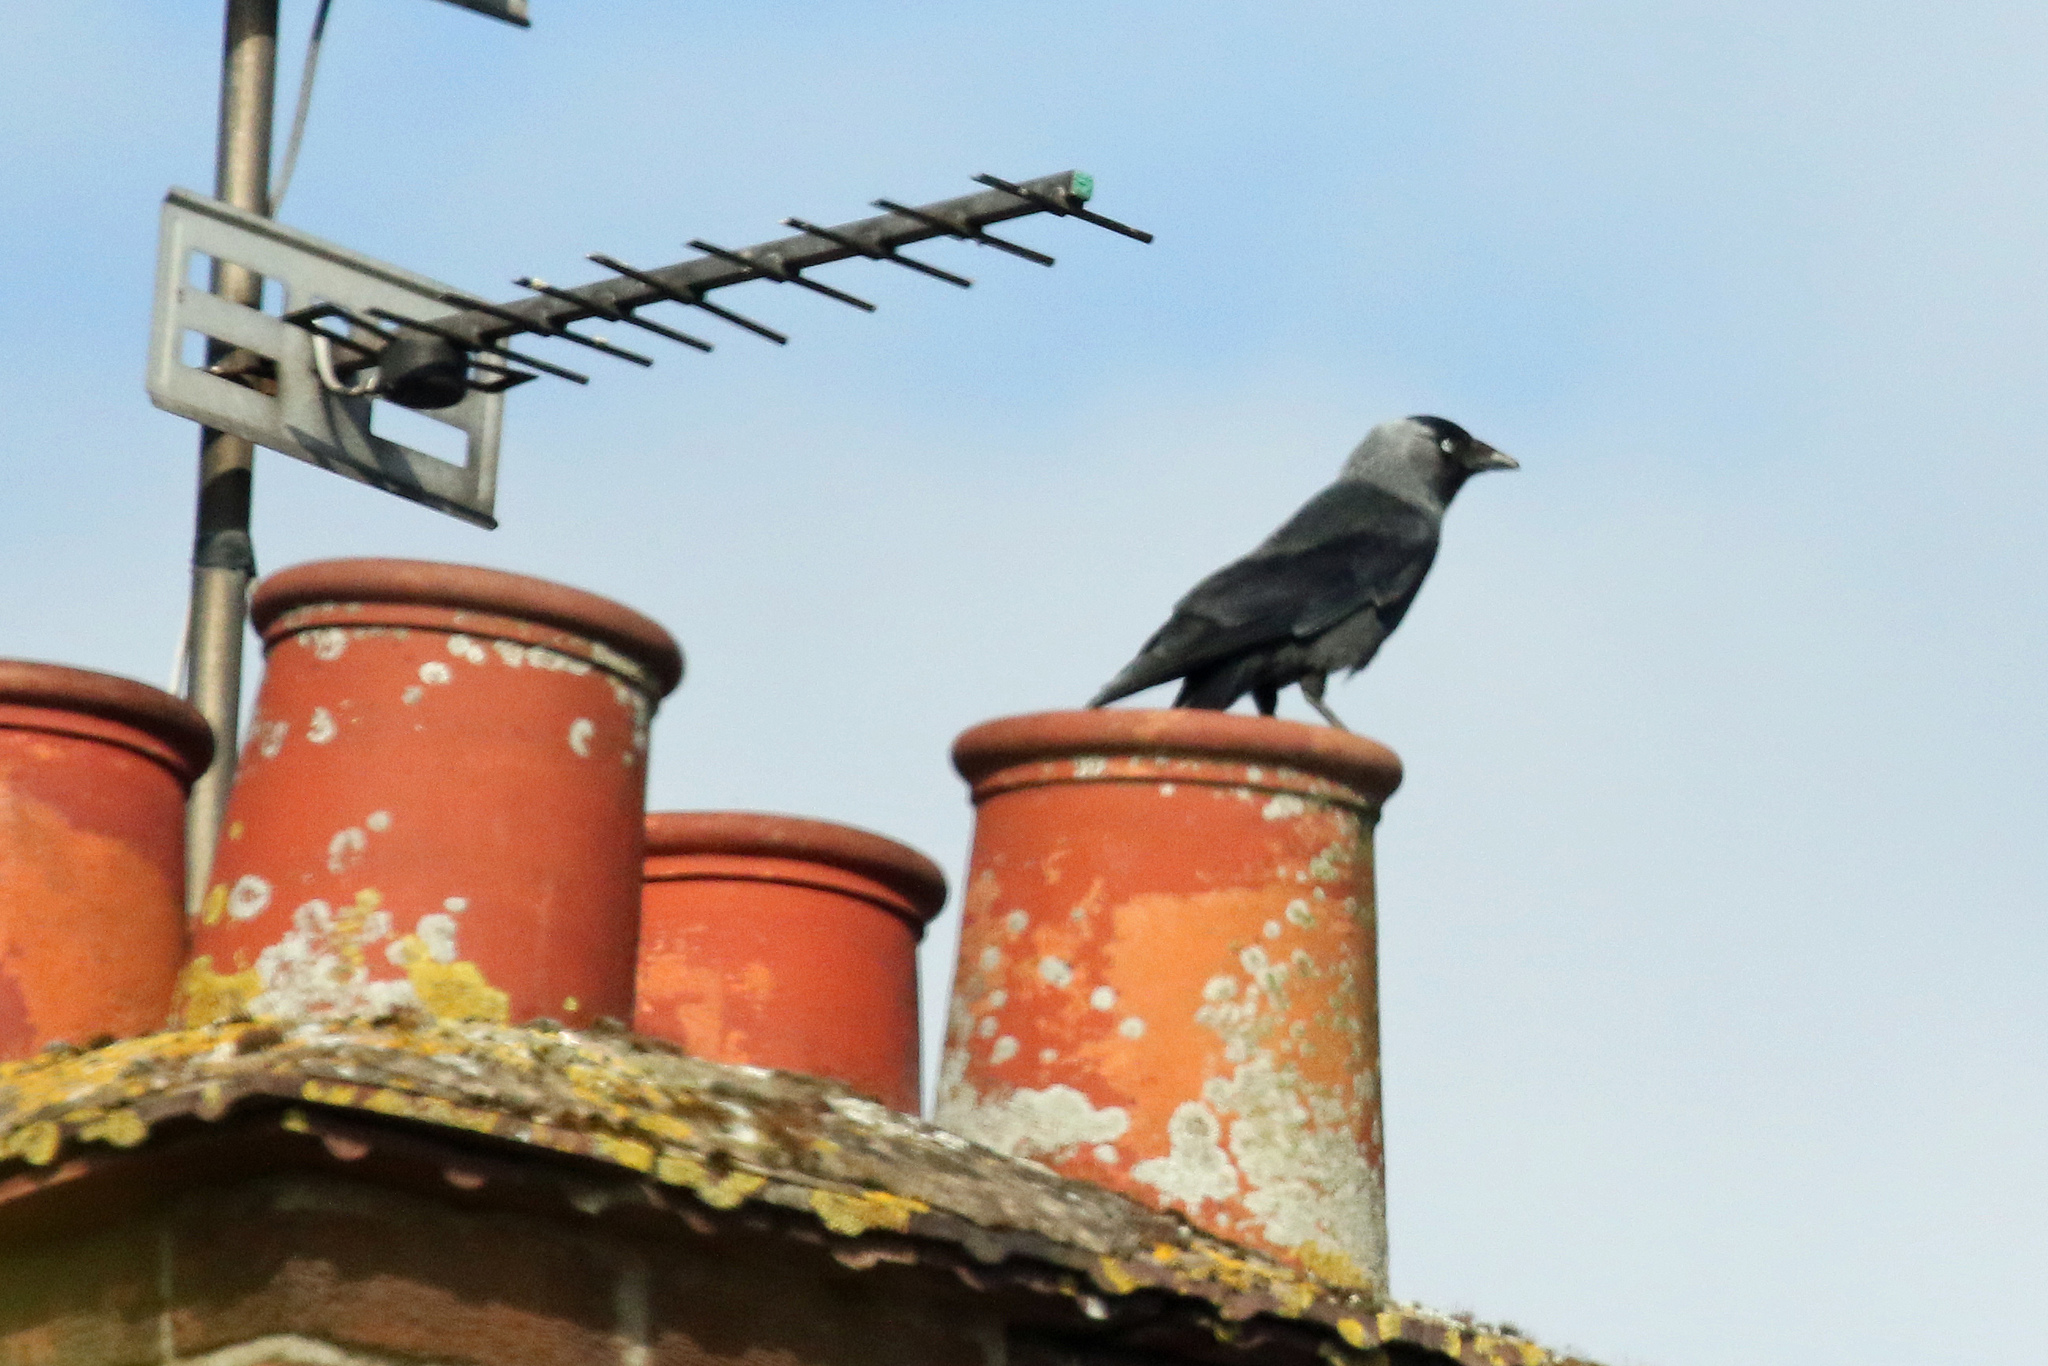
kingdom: Animalia
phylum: Chordata
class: Aves
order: Passeriformes
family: Corvidae
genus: Coloeus
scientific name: Coloeus monedula
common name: Western jackdaw
